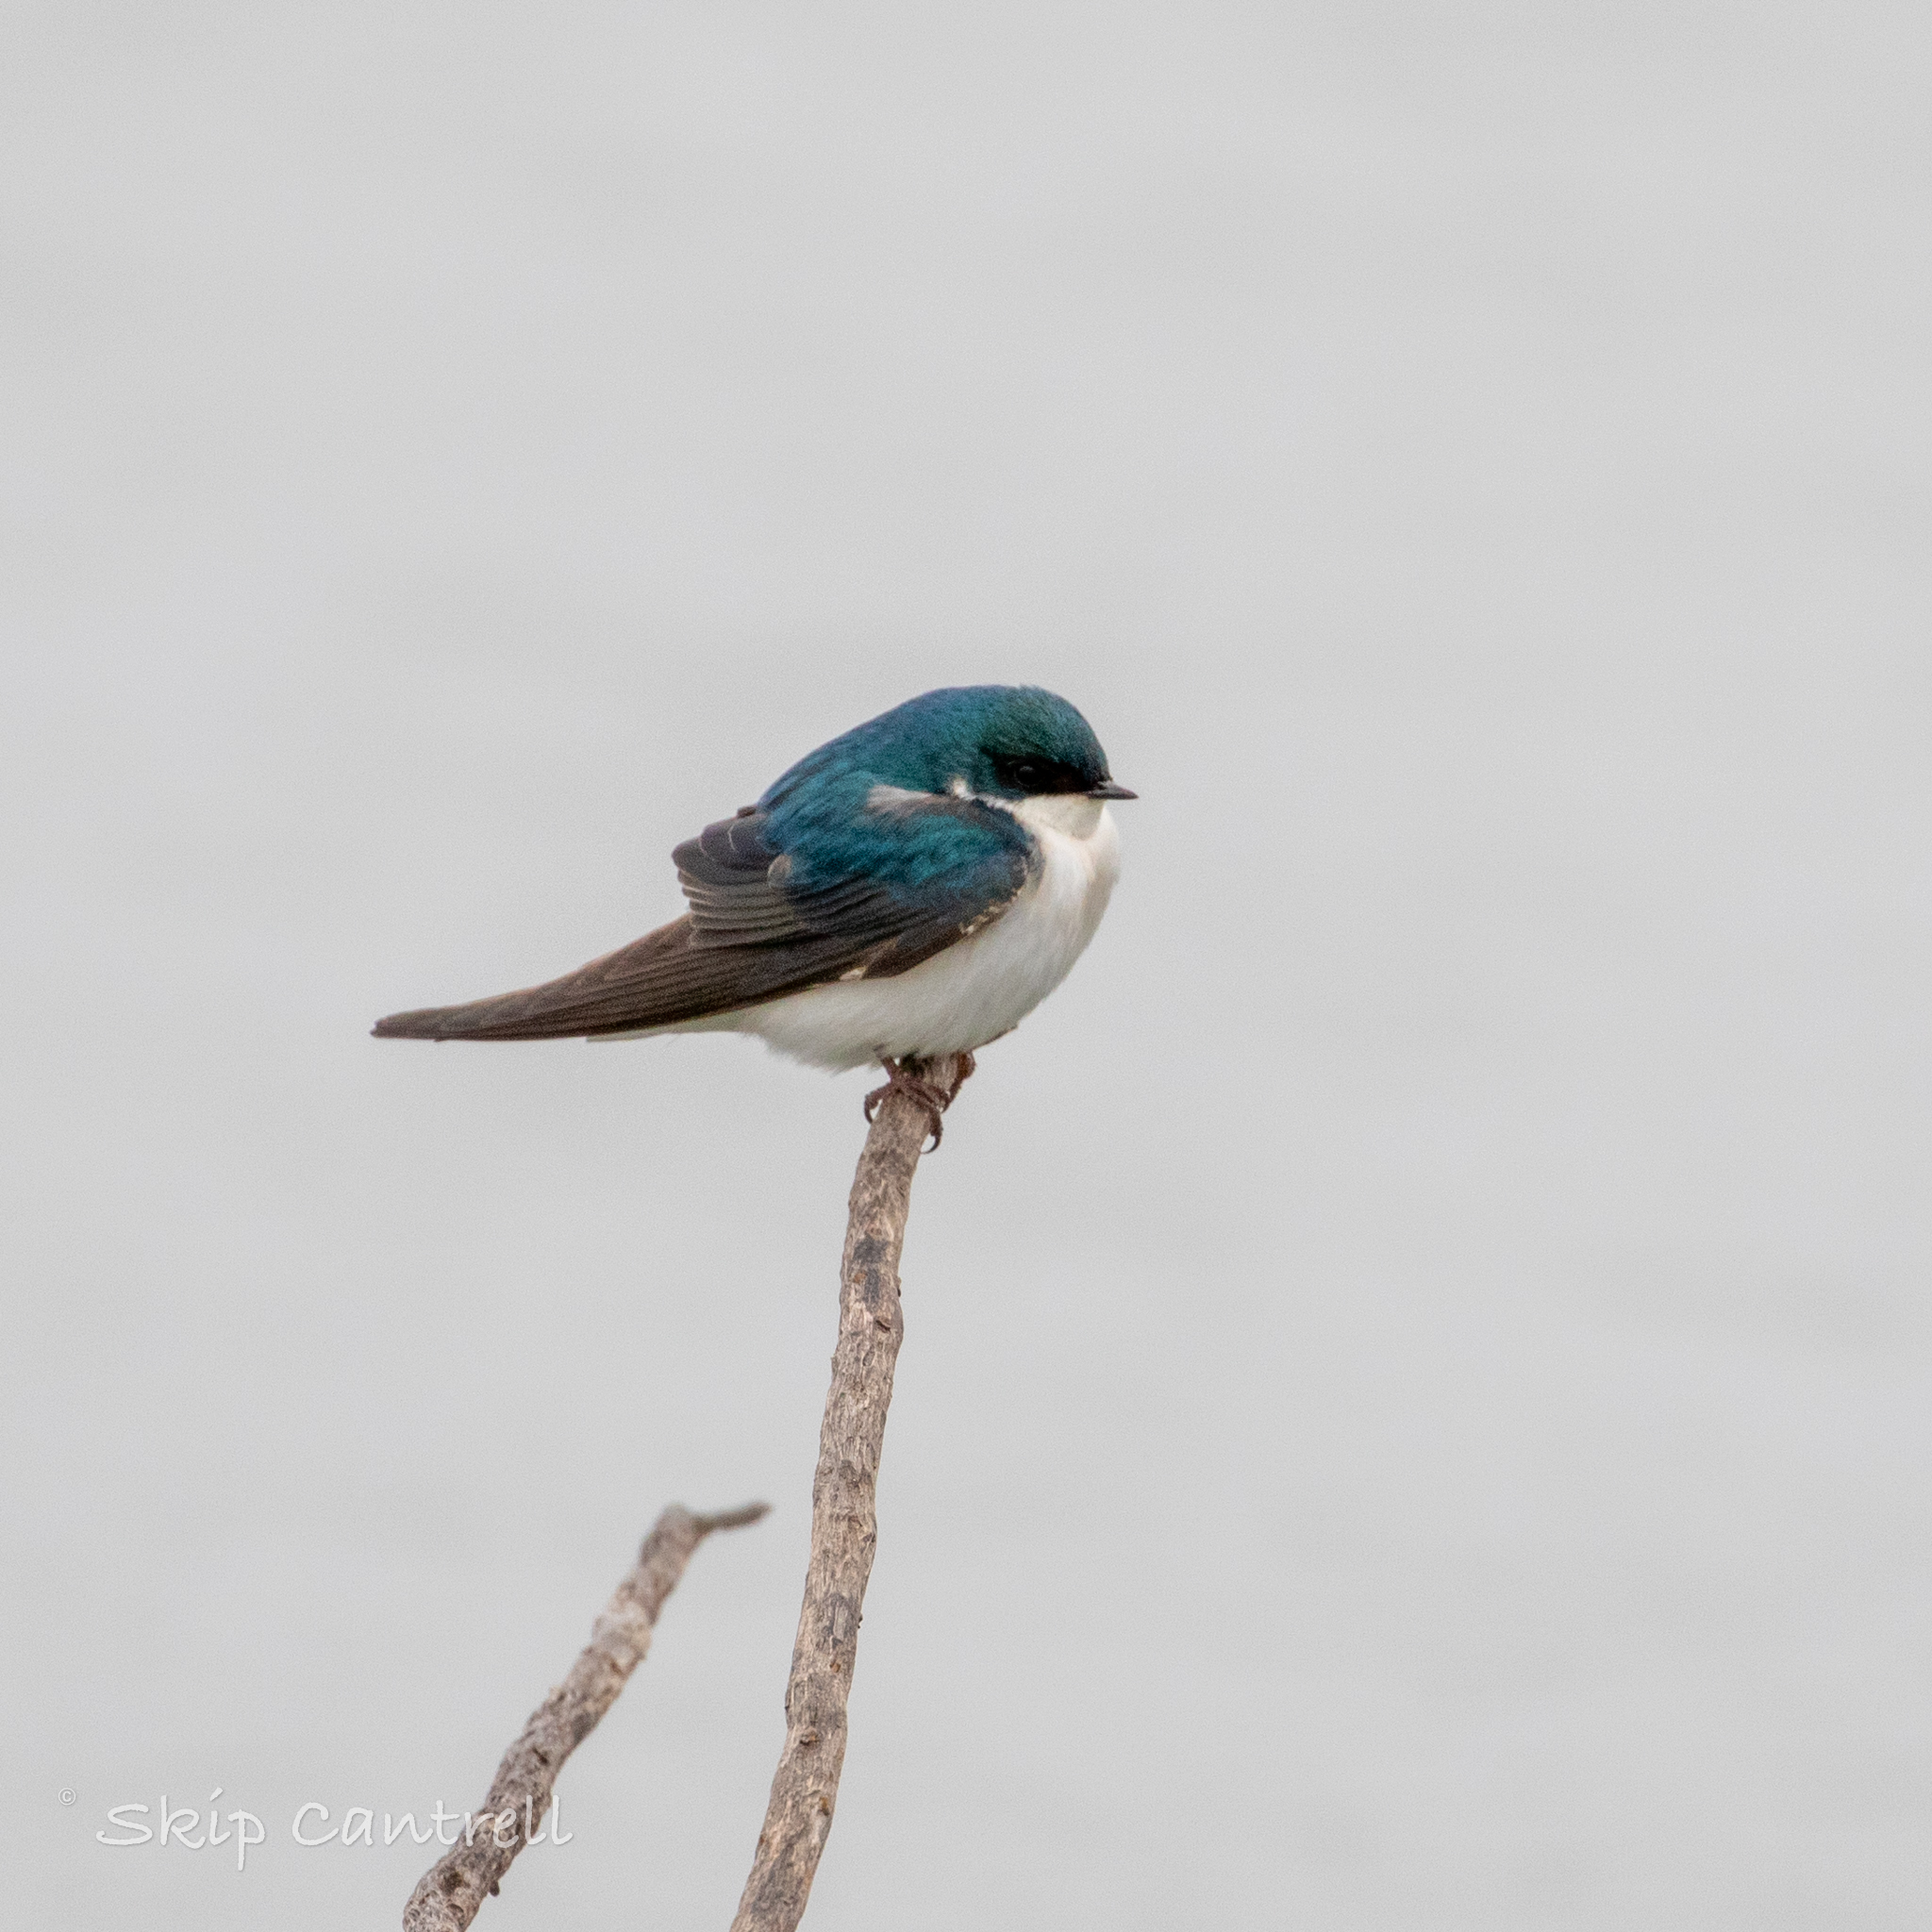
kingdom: Animalia
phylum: Chordata
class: Aves
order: Passeriformes
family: Hirundinidae
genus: Tachycineta
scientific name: Tachycineta bicolor
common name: Tree swallow
